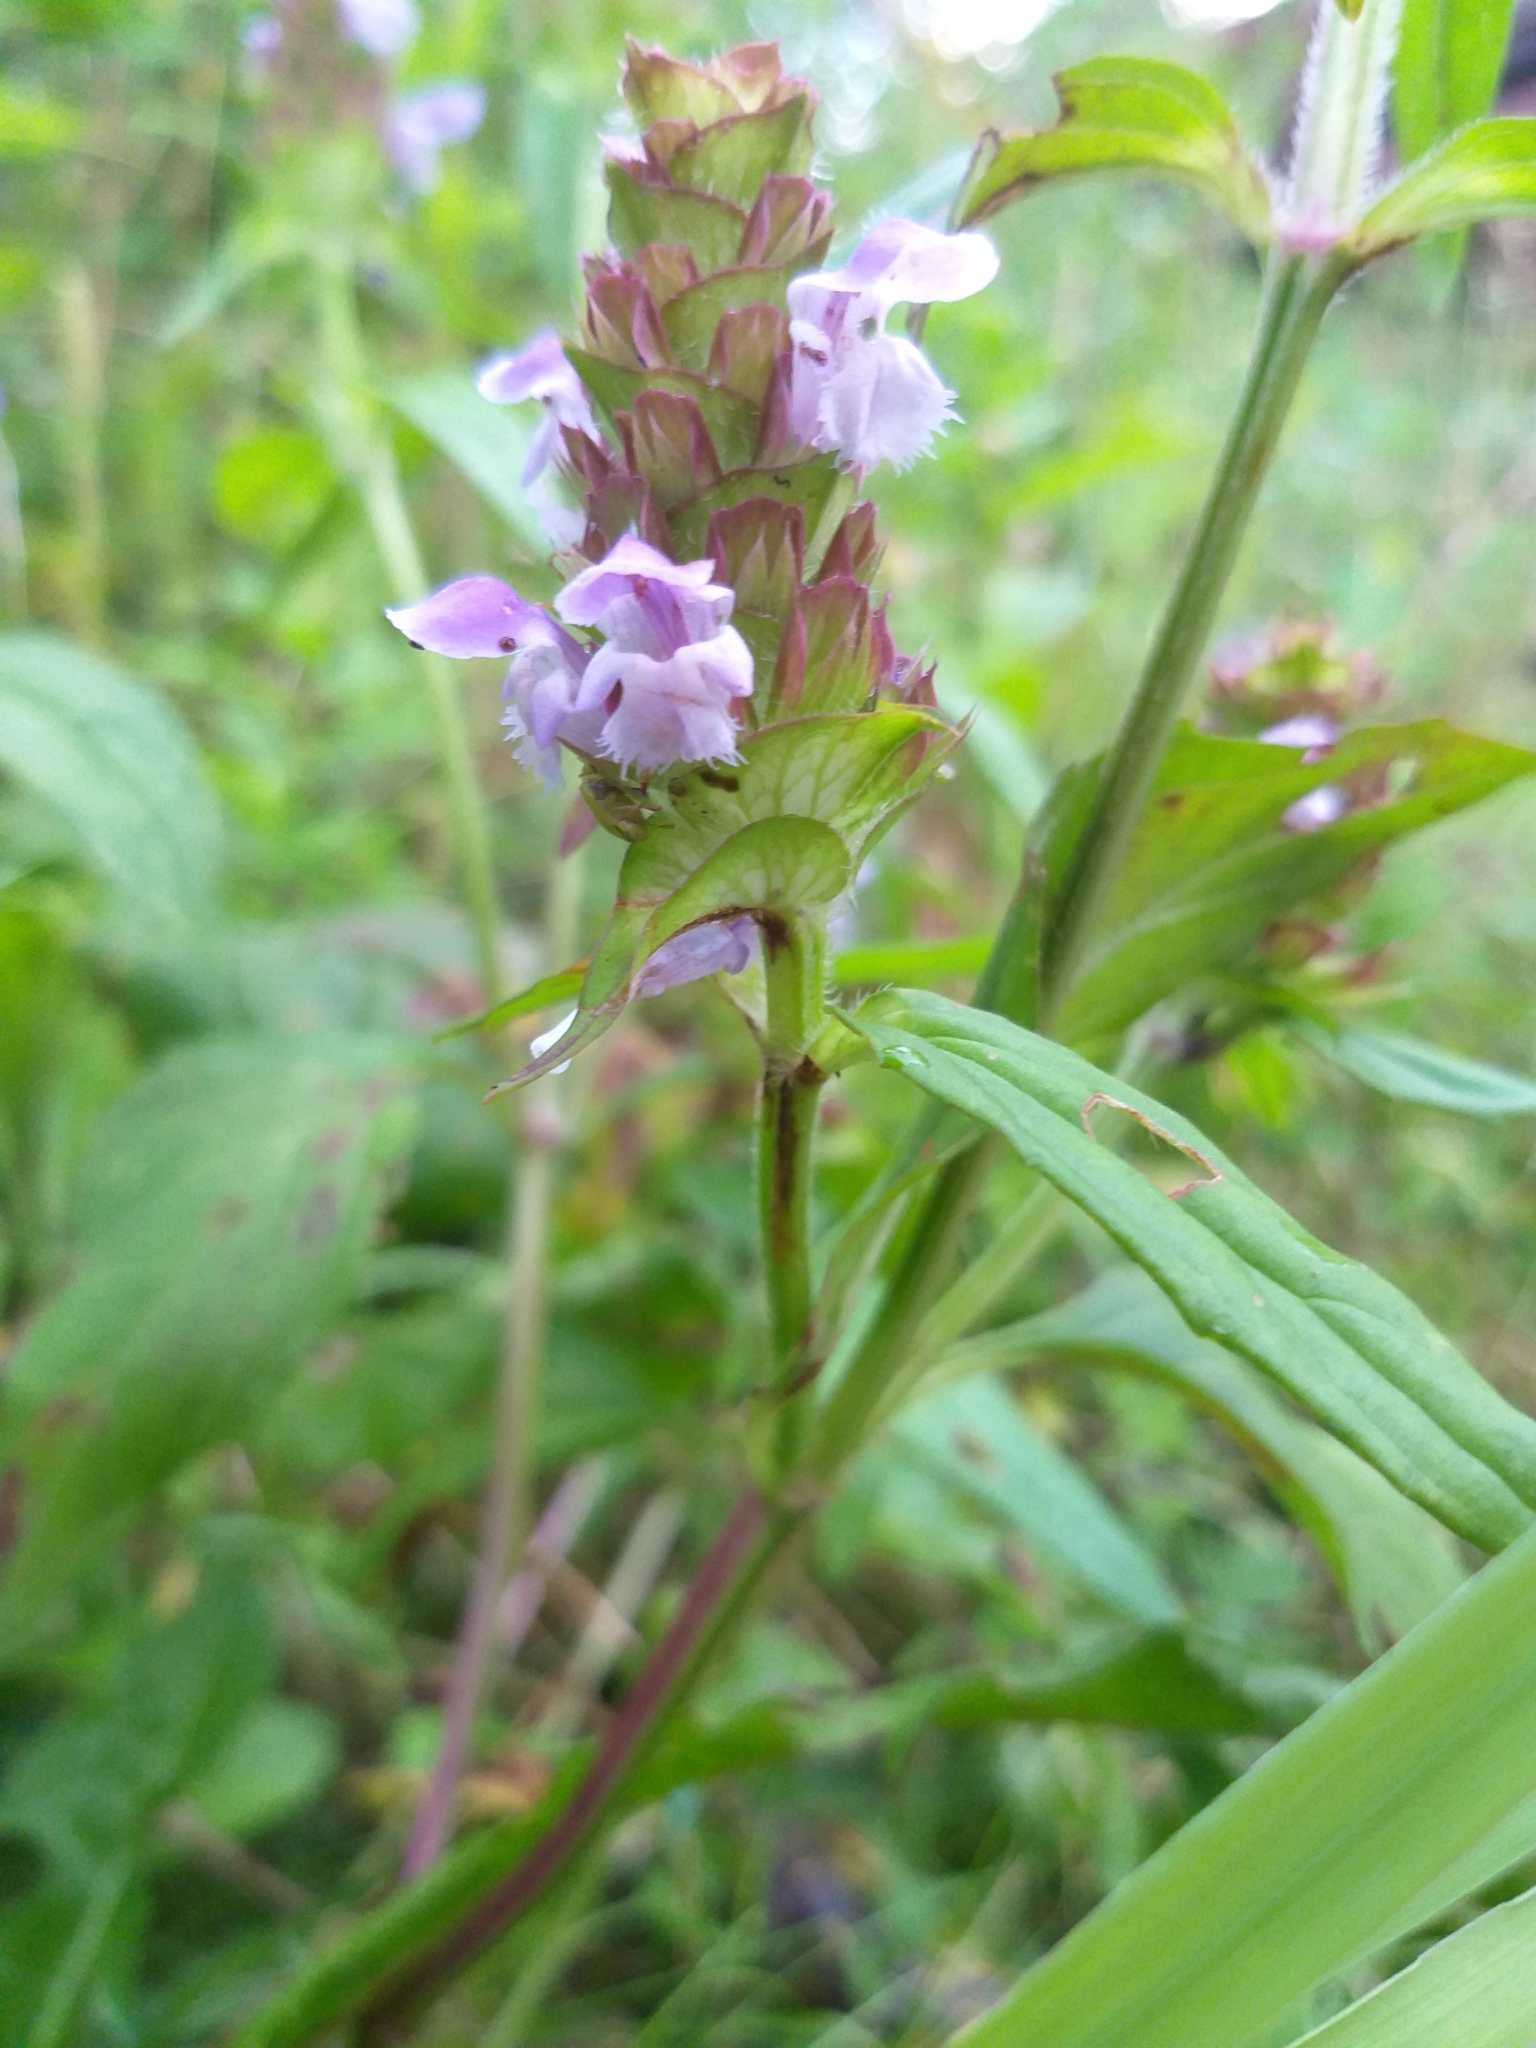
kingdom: Plantae
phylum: Tracheophyta
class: Magnoliopsida
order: Lamiales
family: Lamiaceae
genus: Prunella
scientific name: Prunella vulgaris
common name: Heal-all
